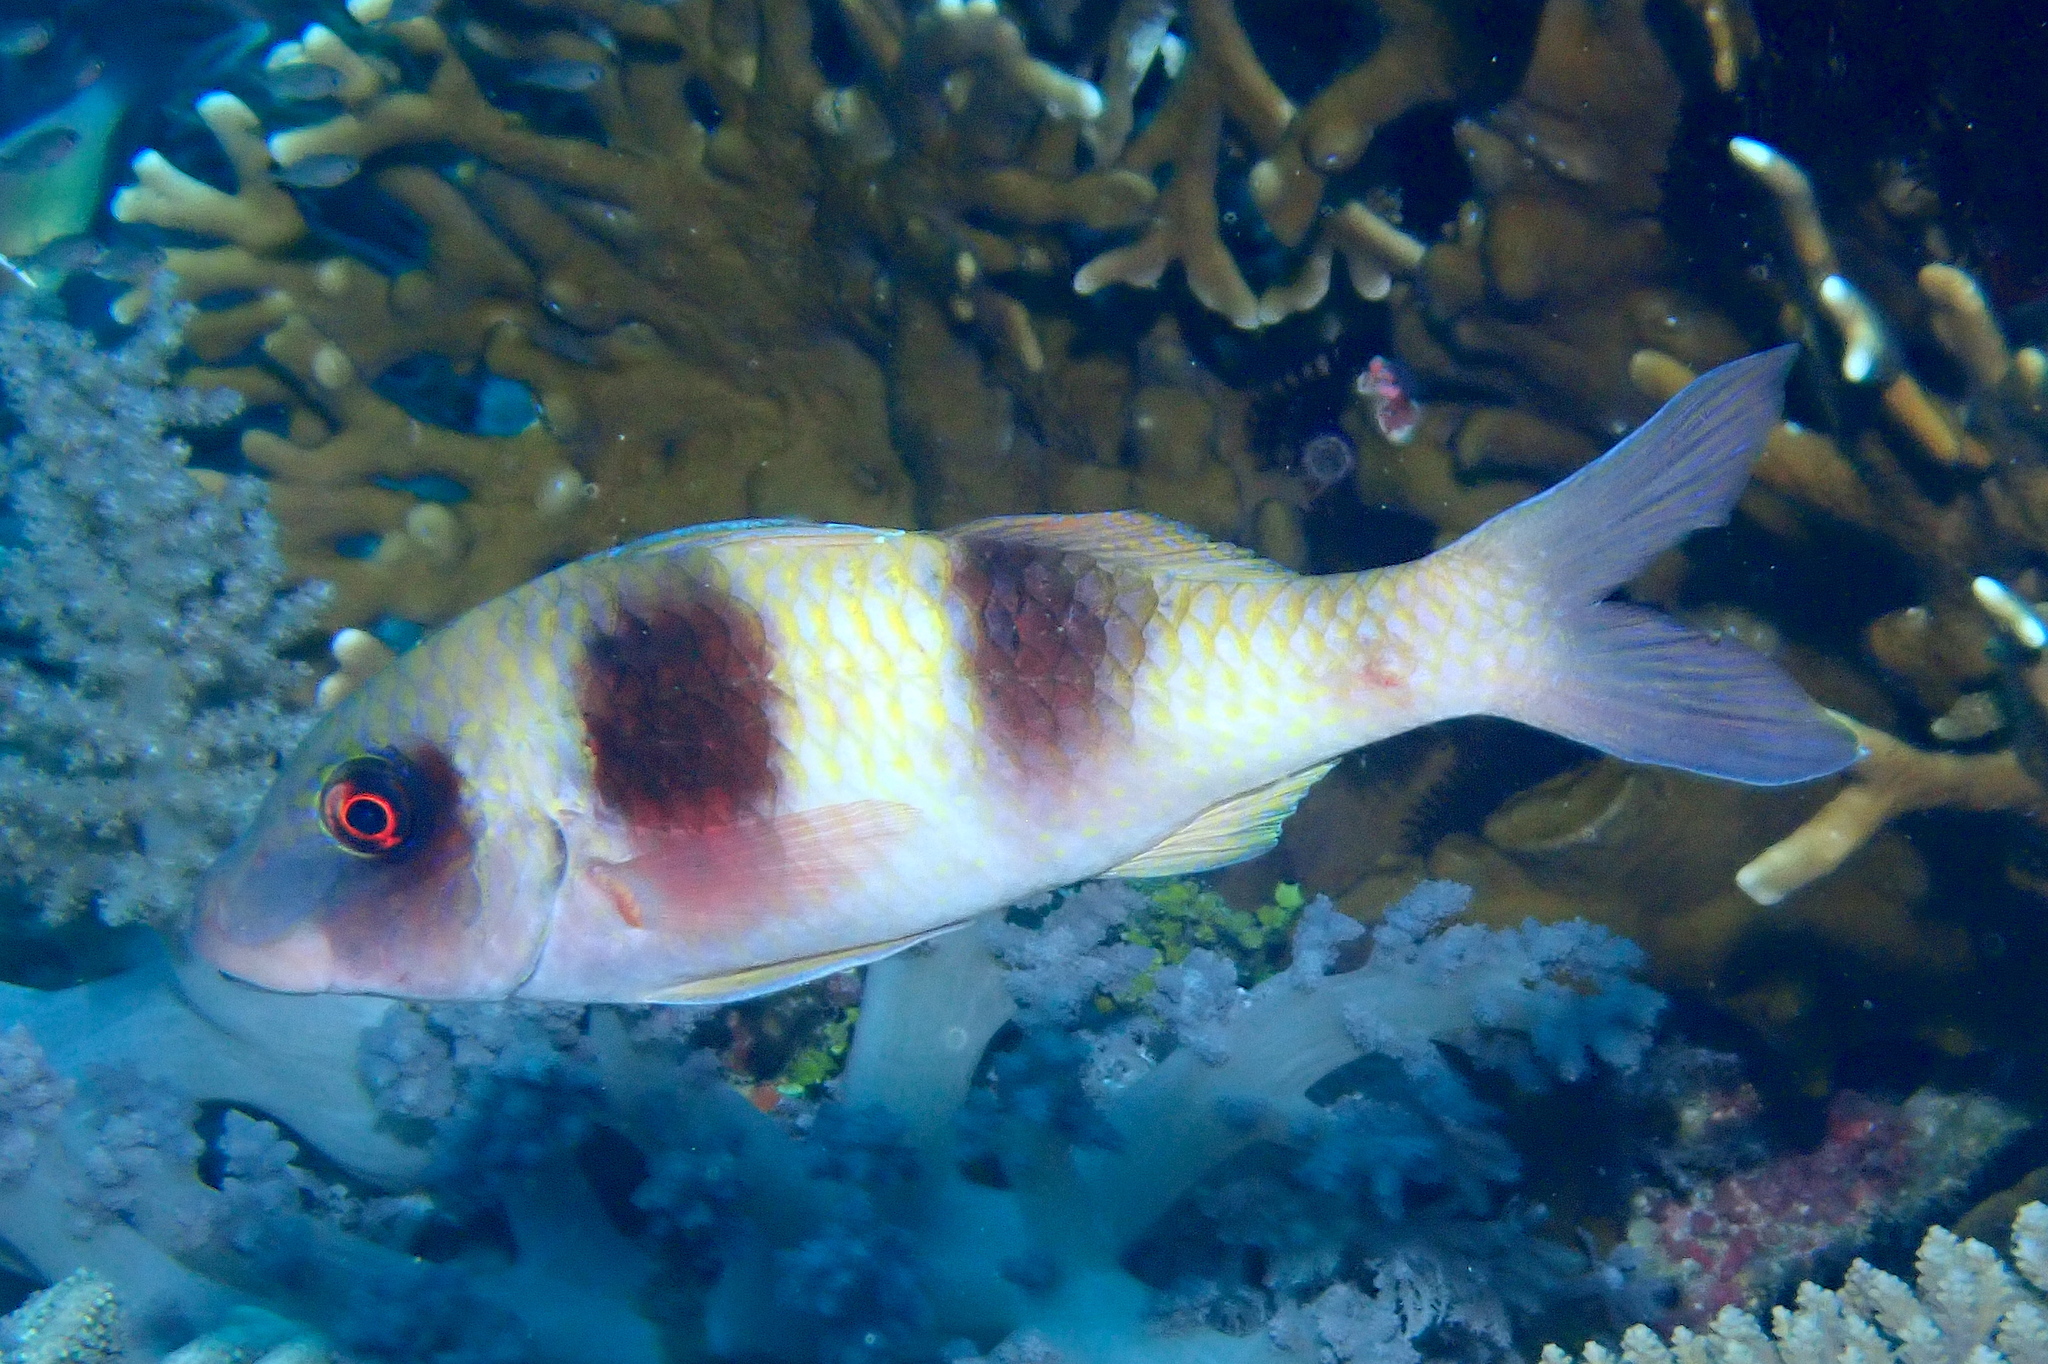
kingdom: Animalia
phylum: Chordata
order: Perciformes
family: Mullidae
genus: Parupeneus
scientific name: Parupeneus crassilabris
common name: Doublebar goatfish
